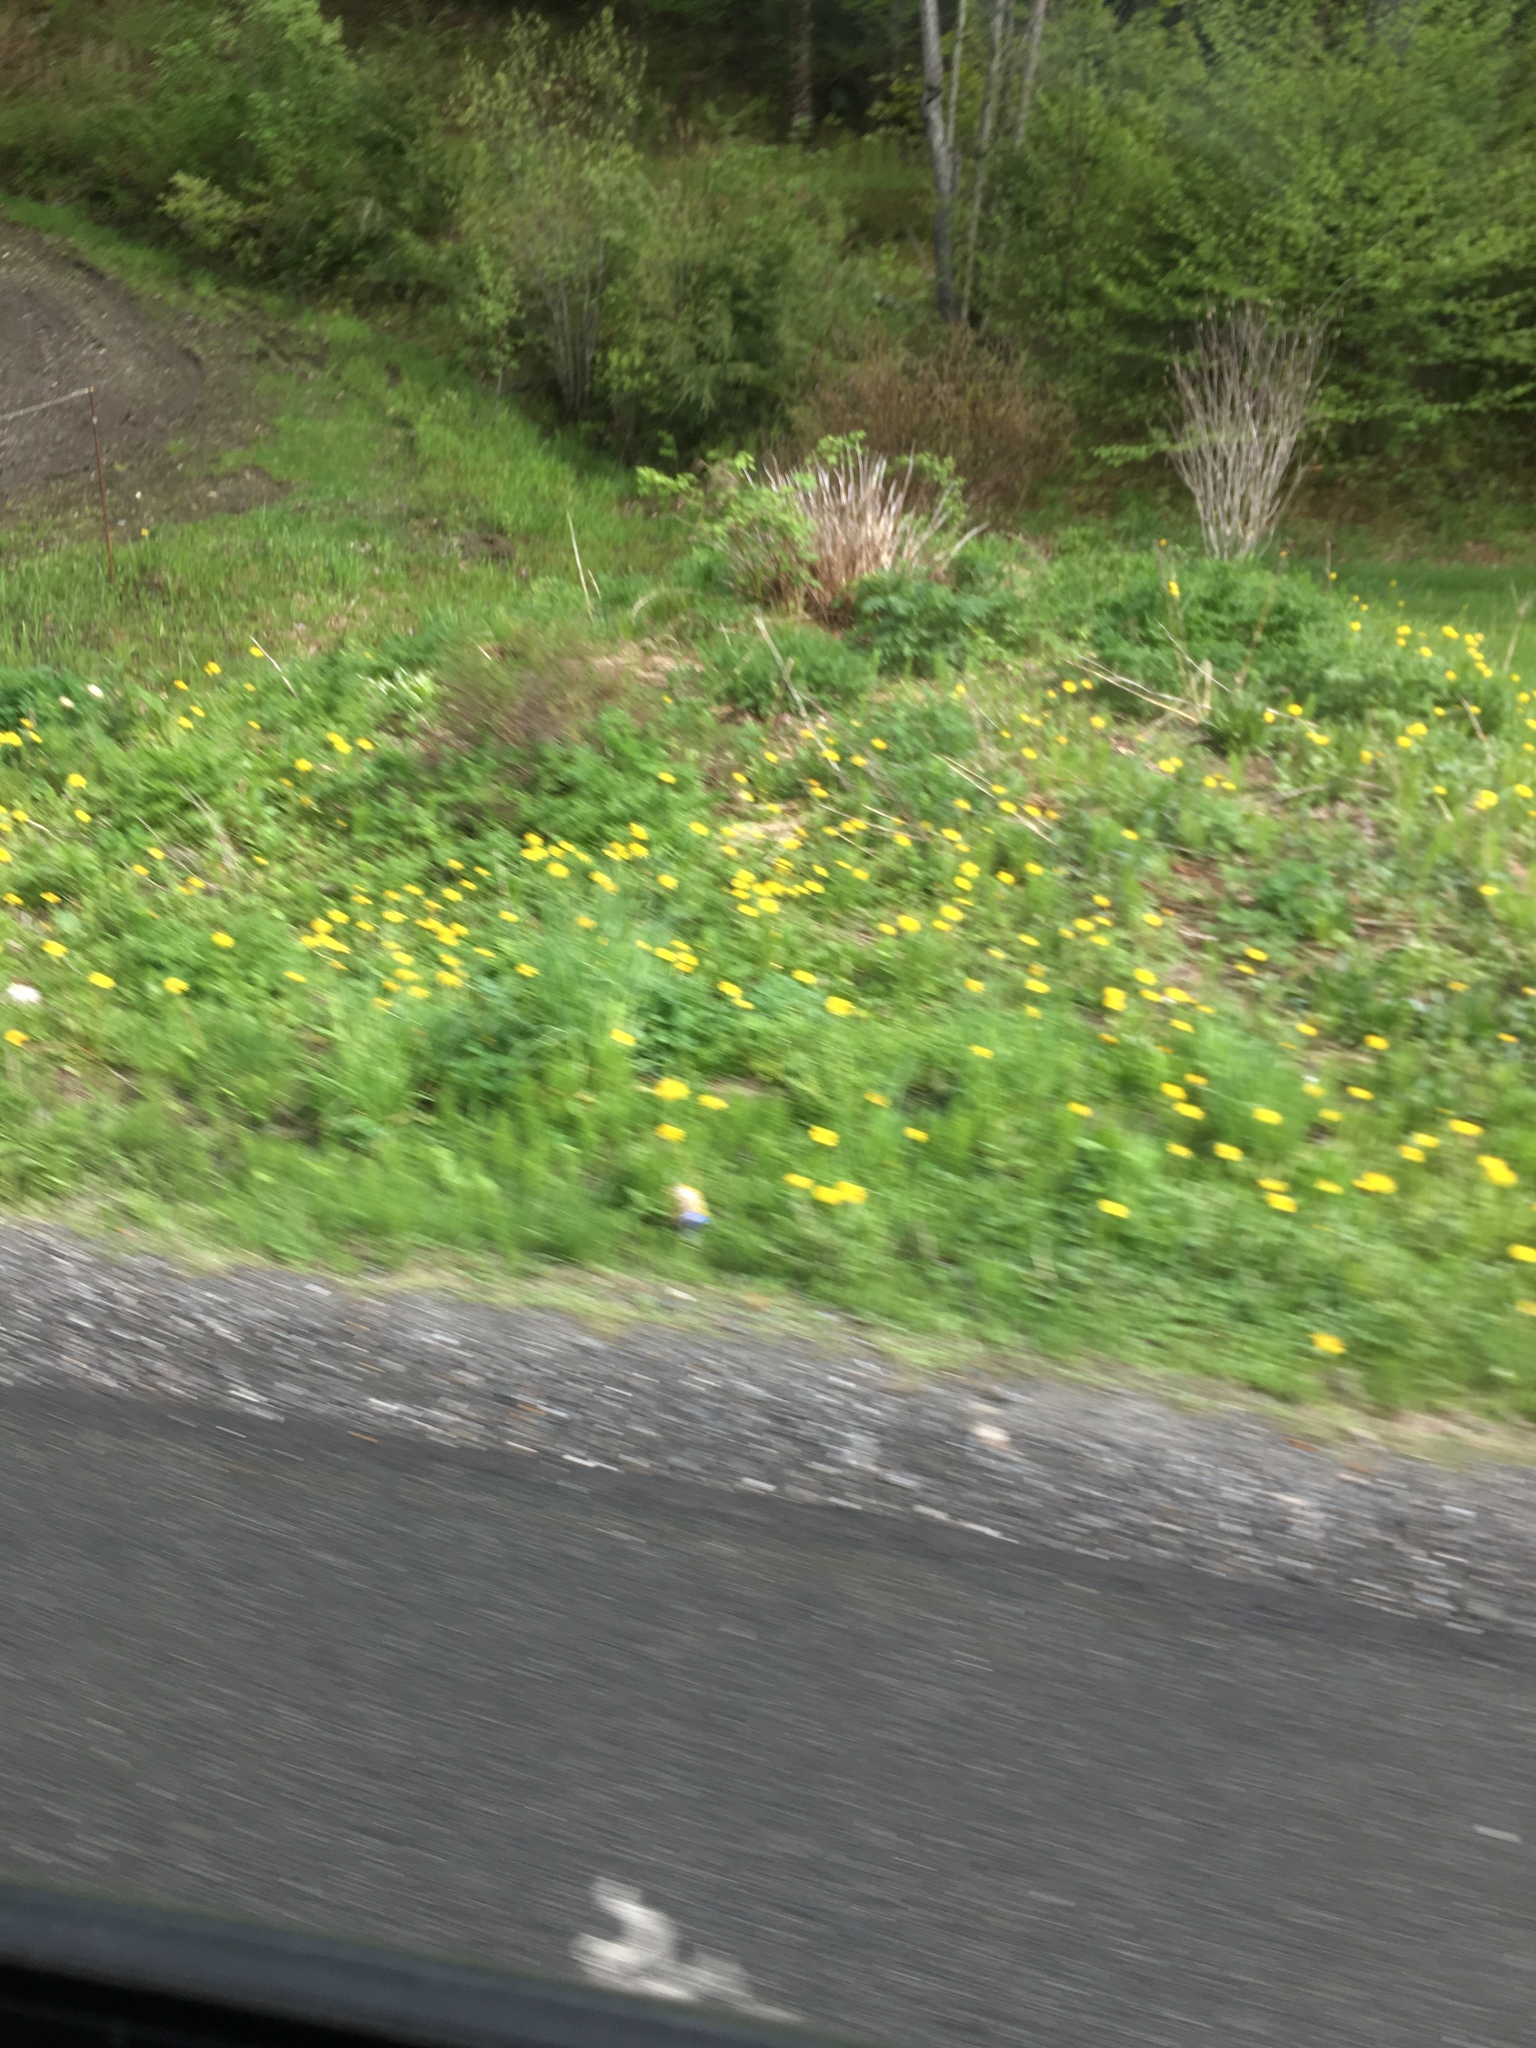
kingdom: Plantae
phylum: Tracheophyta
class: Magnoliopsida
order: Asterales
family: Asteraceae
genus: Taraxacum
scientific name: Taraxacum
